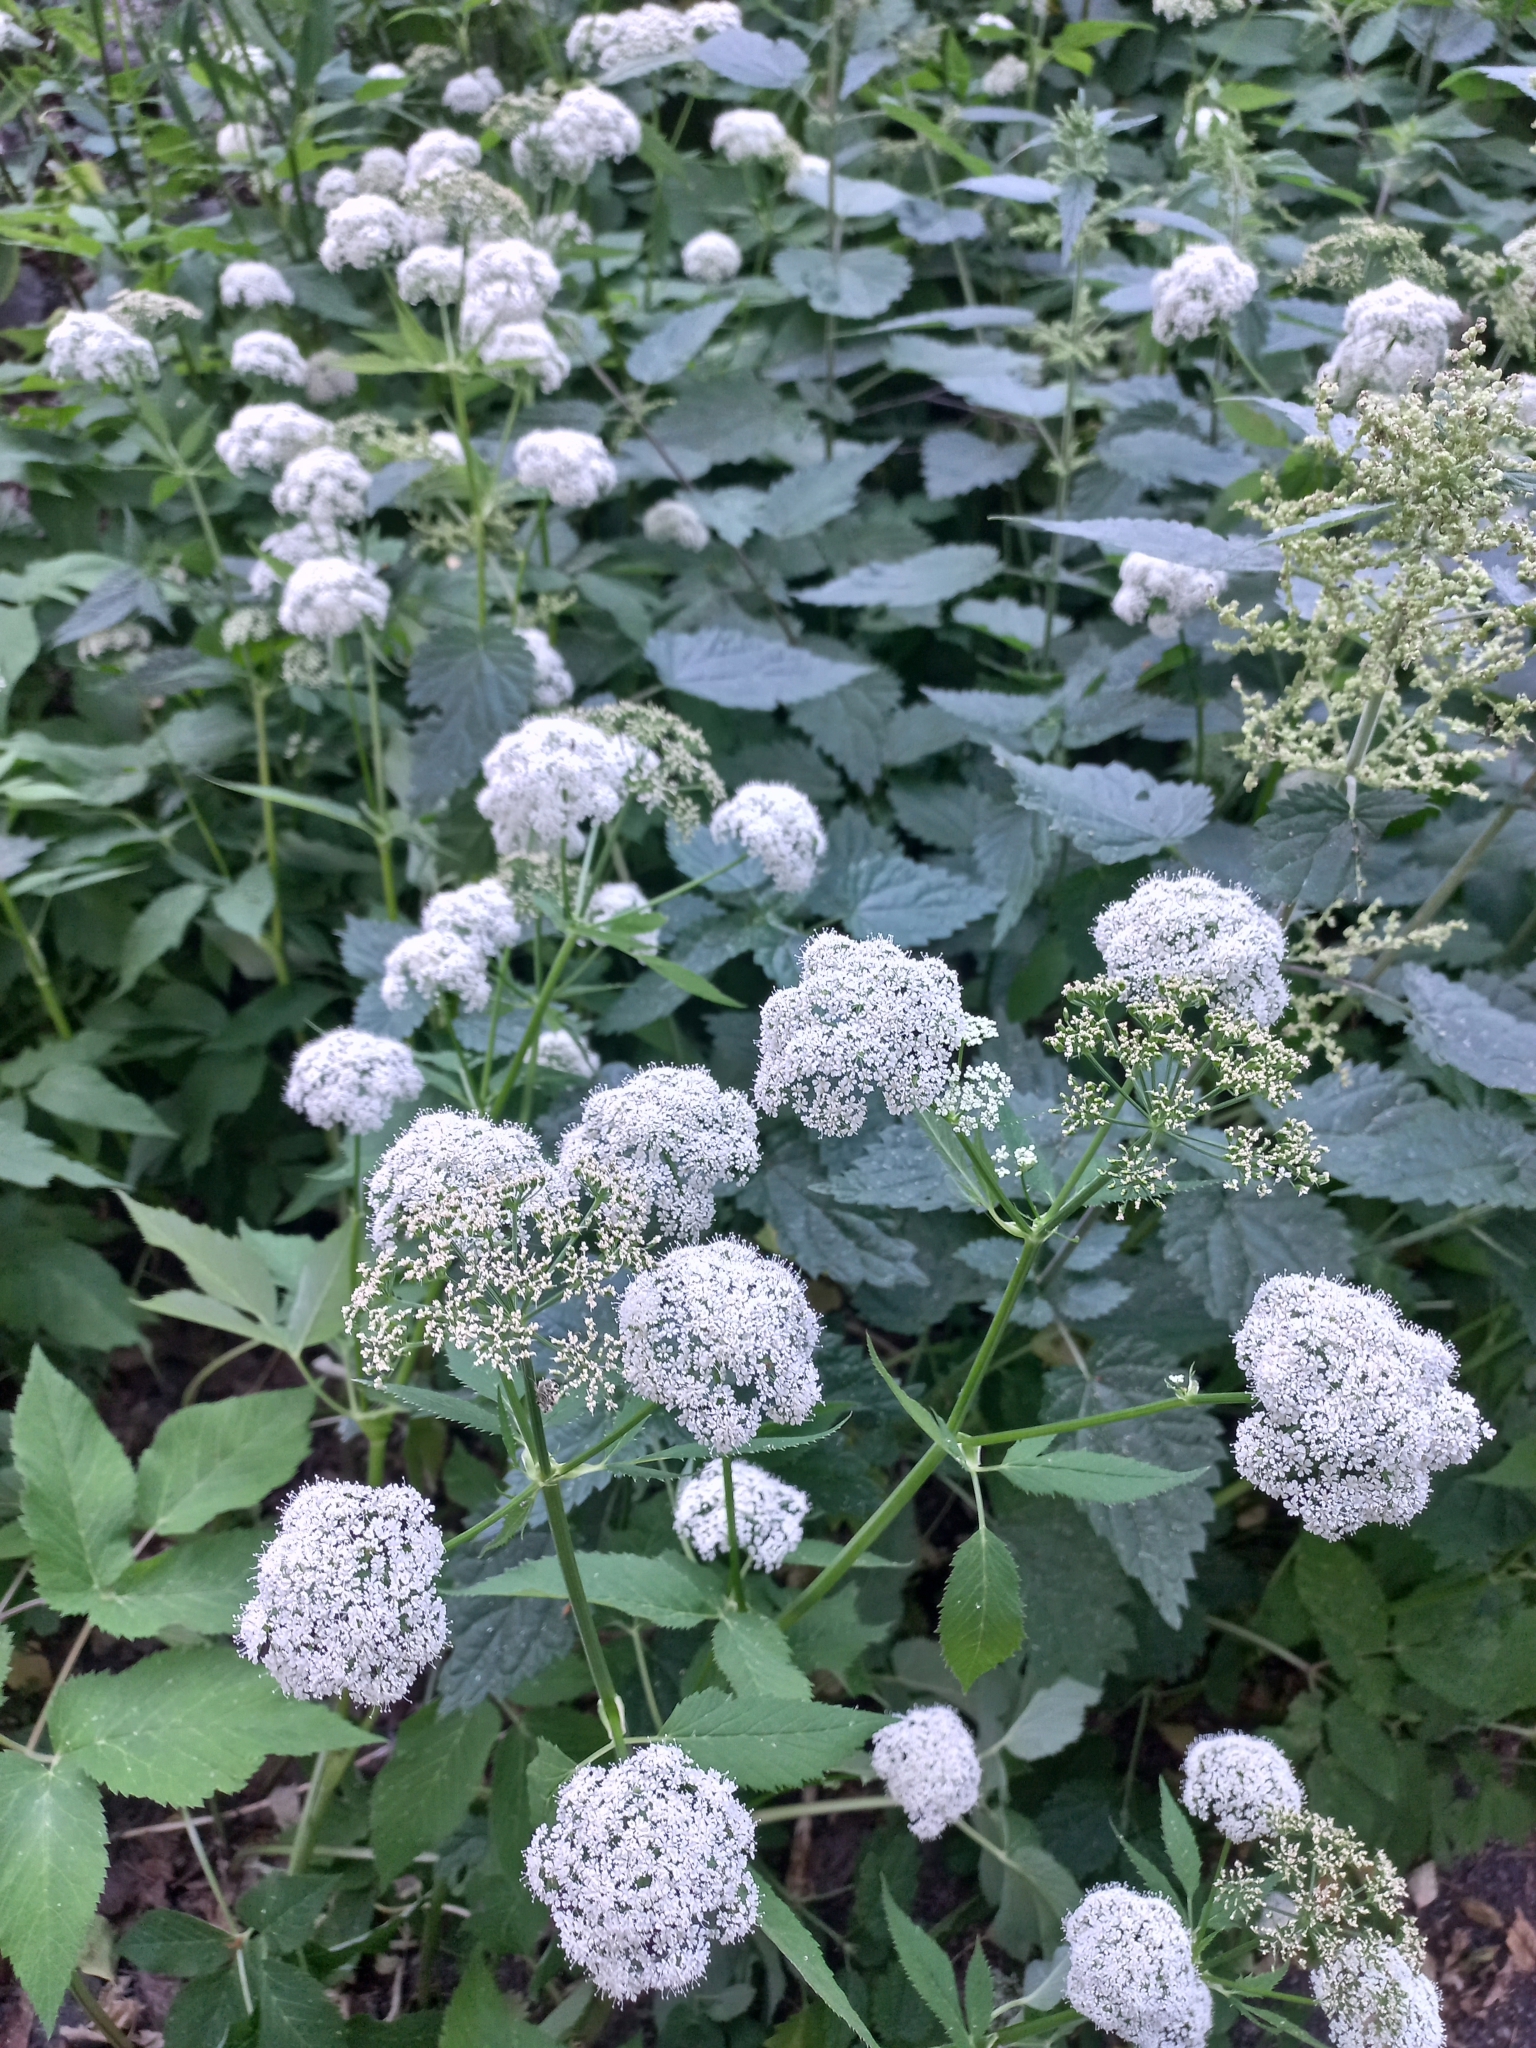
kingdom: Plantae
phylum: Tracheophyta
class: Magnoliopsida
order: Apiales
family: Apiaceae
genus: Aegopodium
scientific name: Aegopodium podagraria
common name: Ground-elder
